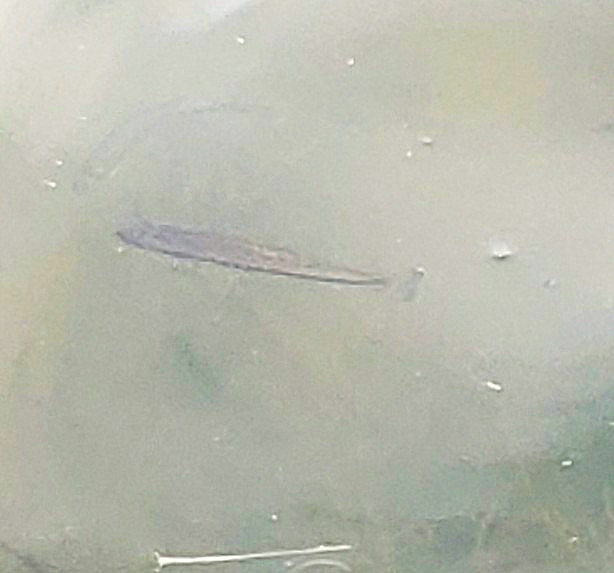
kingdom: Animalia
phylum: Chordata
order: Perciformes
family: Centrarchidae
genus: Micropterus
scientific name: Micropterus
